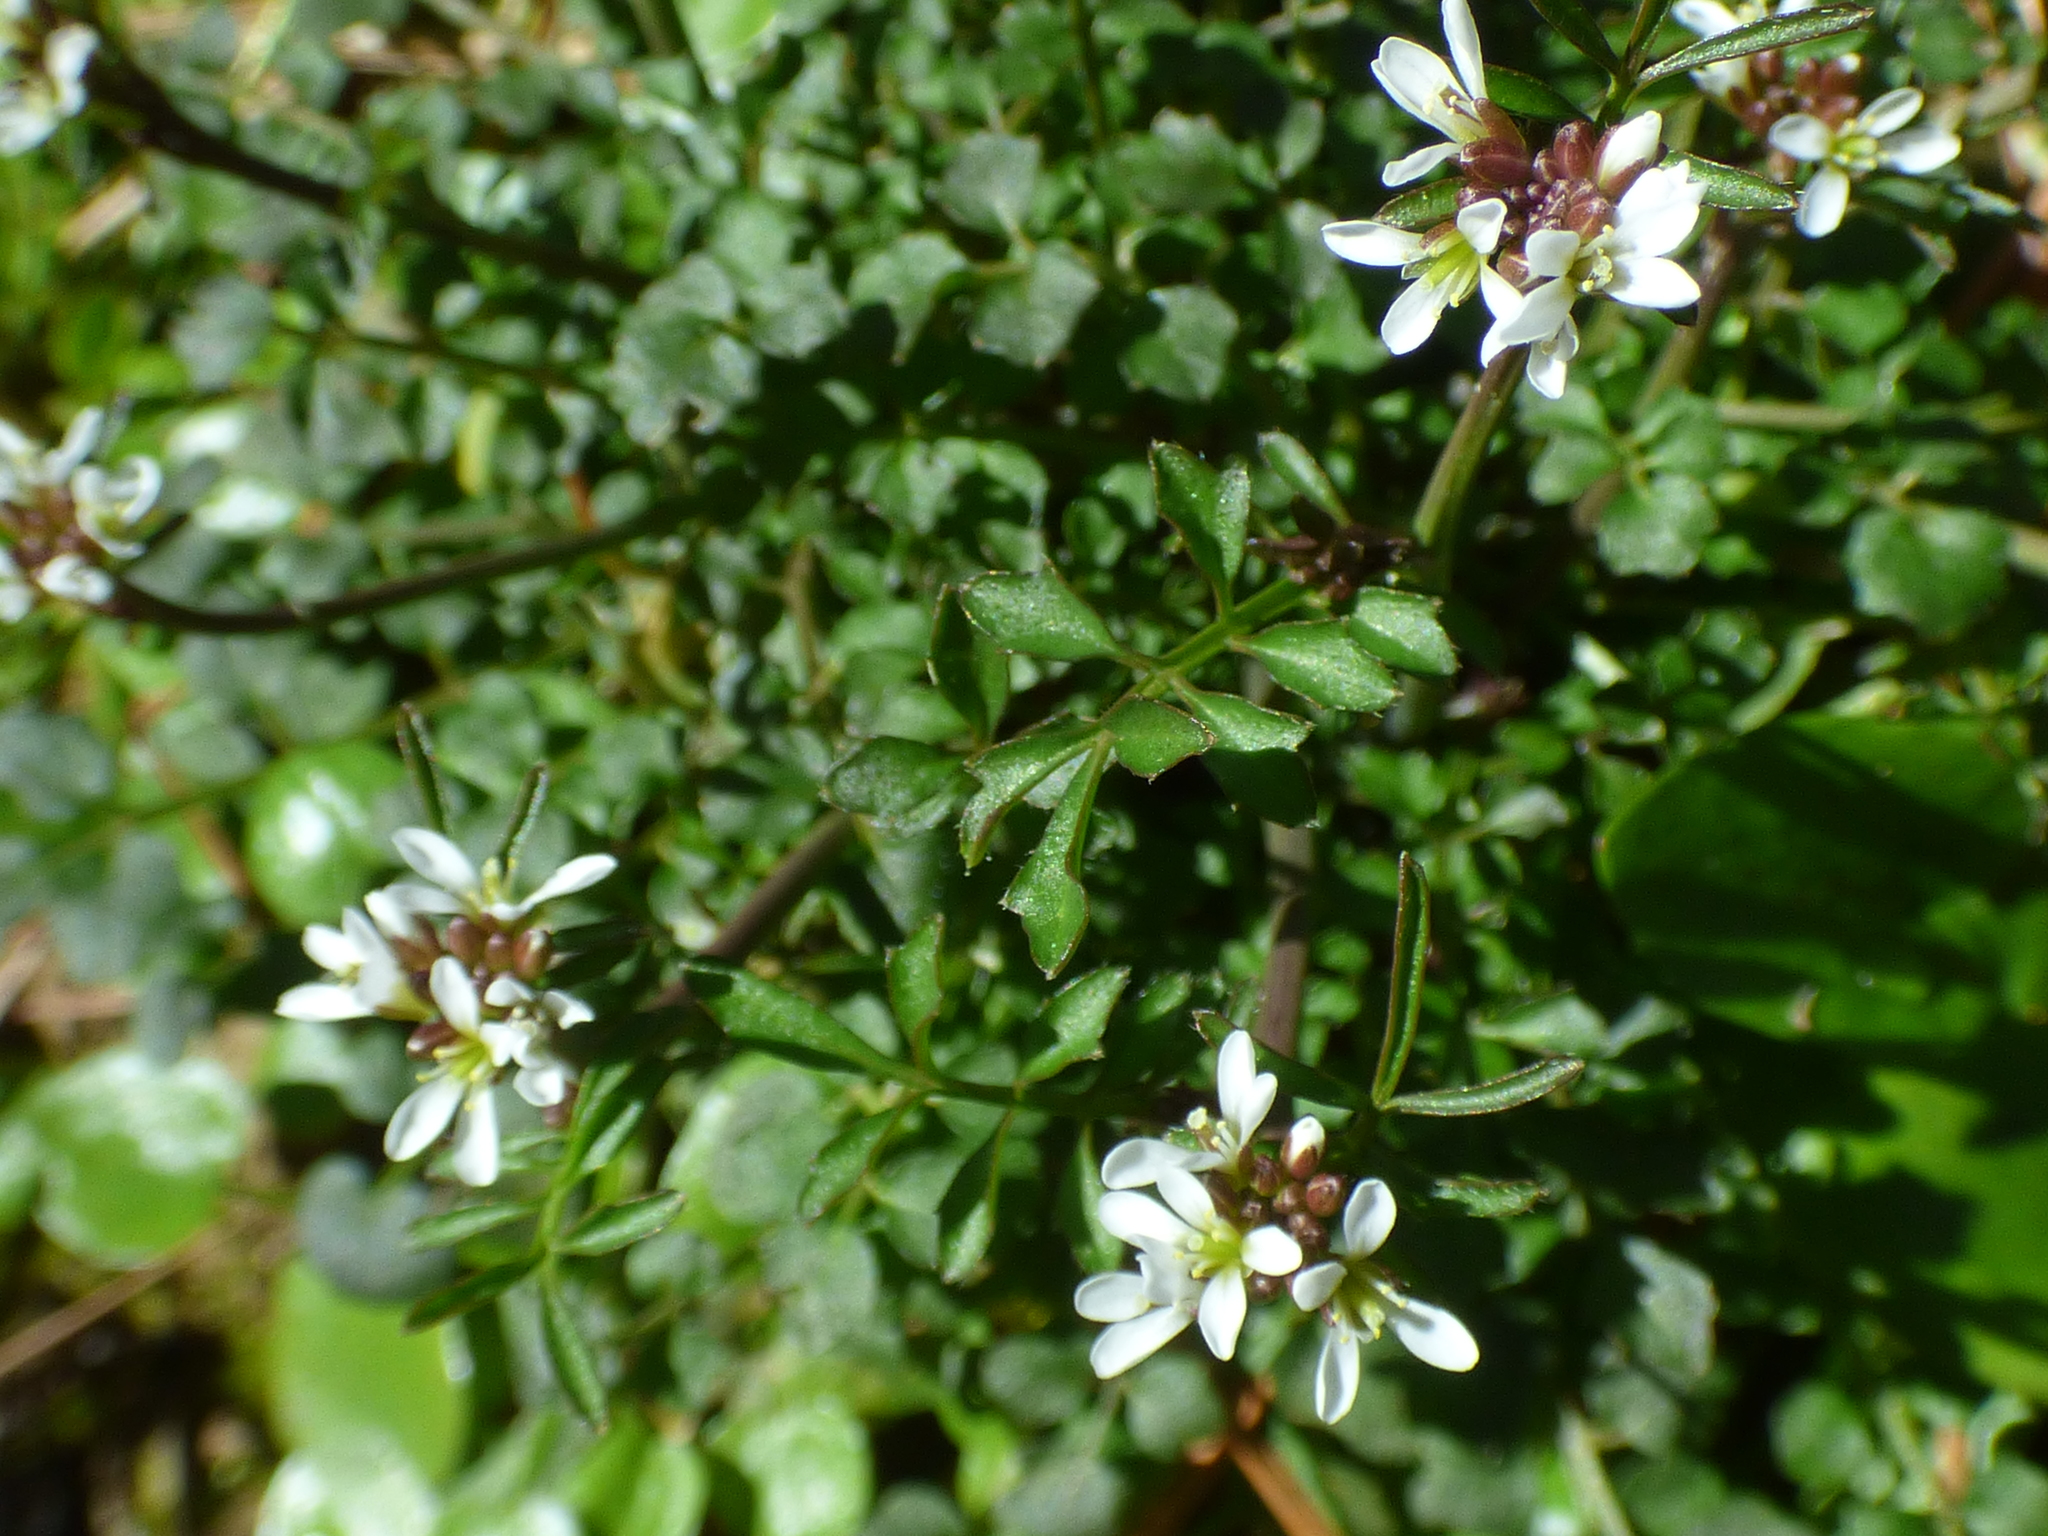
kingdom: Plantae
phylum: Tracheophyta
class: Magnoliopsida
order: Brassicales
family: Brassicaceae
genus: Cardamine
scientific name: Cardamine hirsuta
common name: Hairy bittercress
